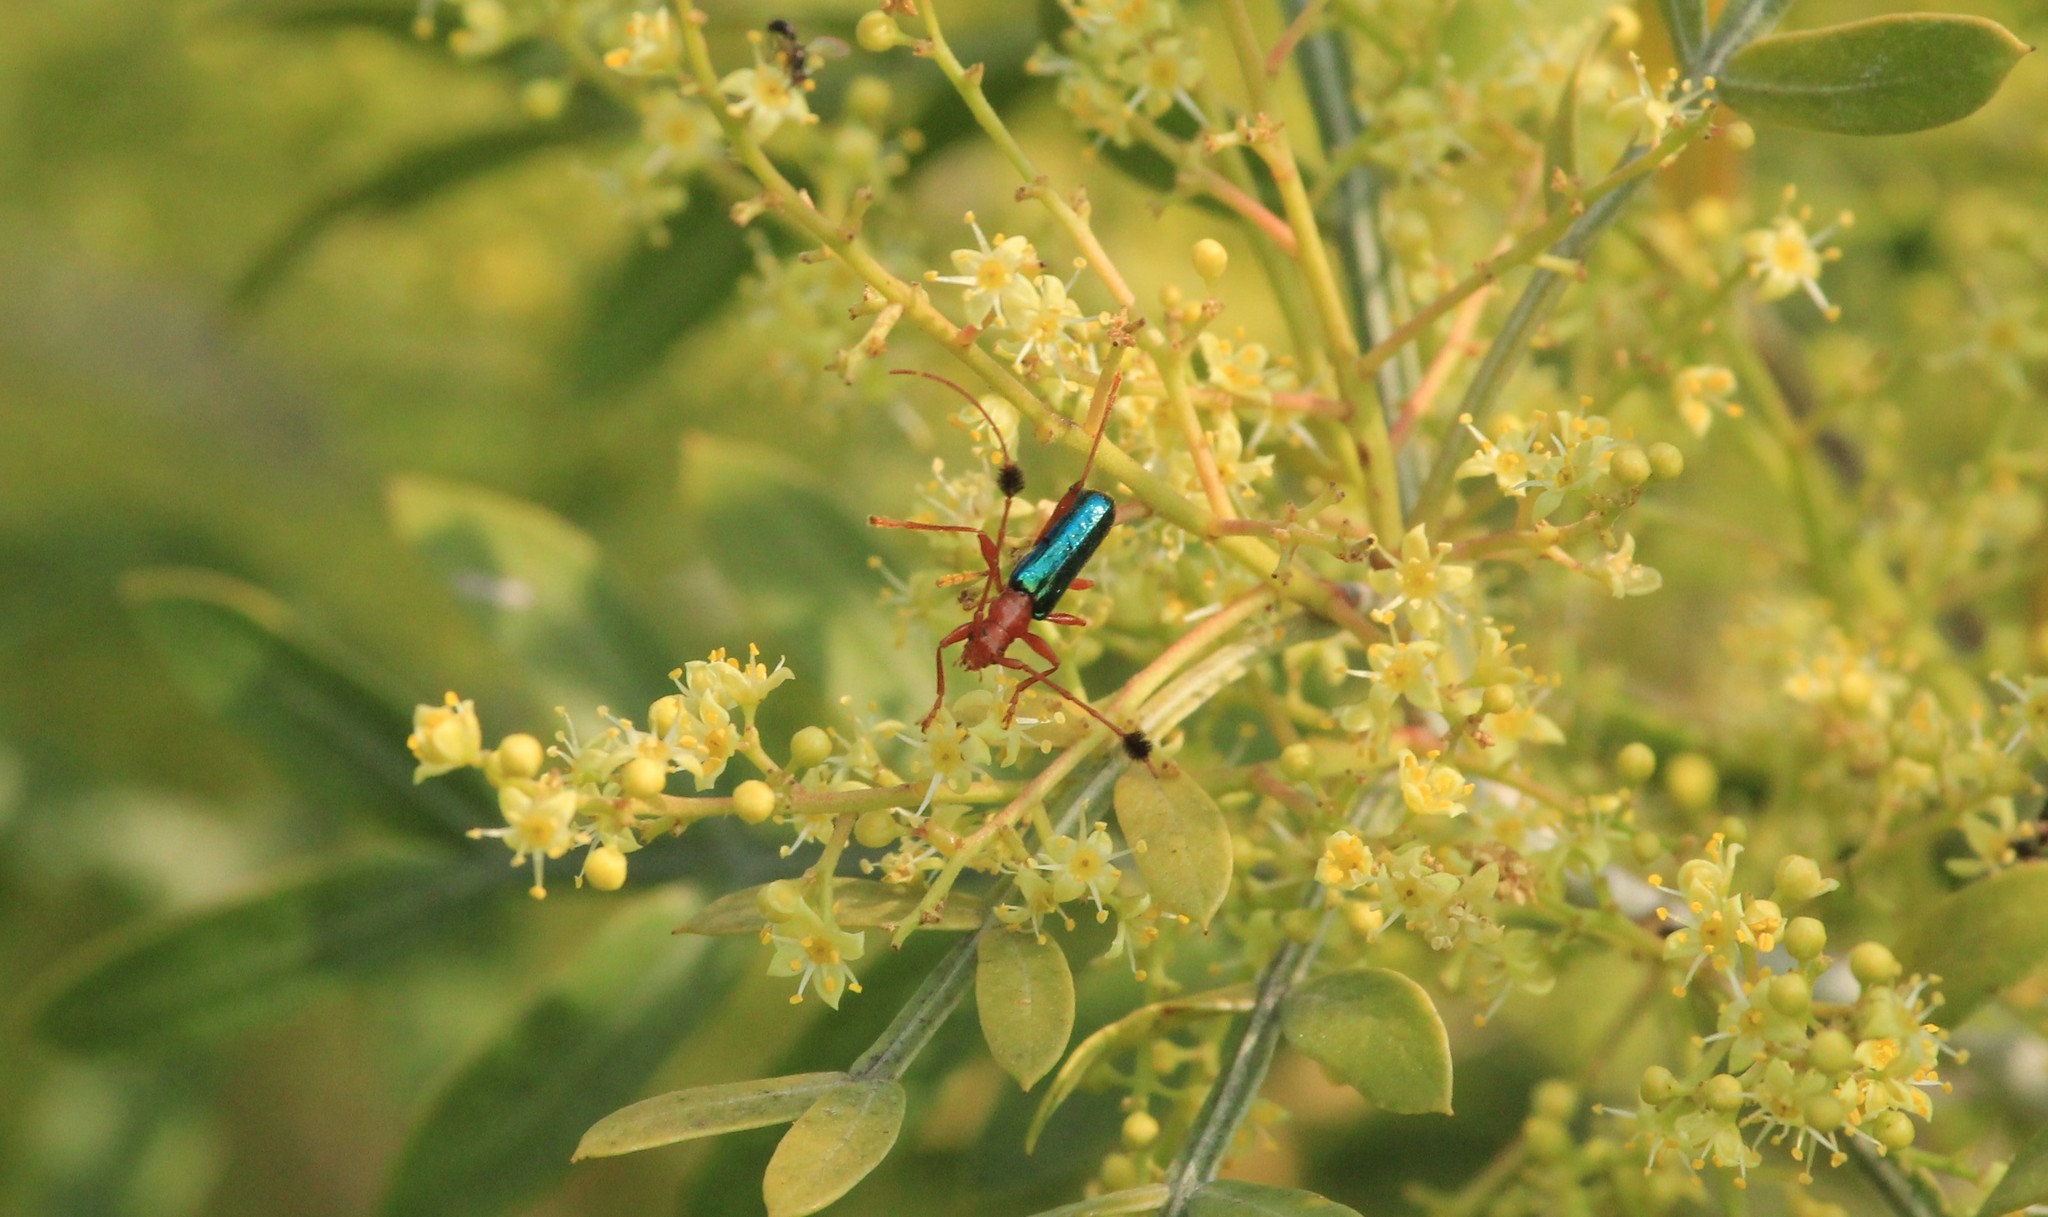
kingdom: Animalia
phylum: Arthropoda
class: Insecta
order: Coleoptera
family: Cerambycidae
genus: Paromoeocerus
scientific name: Paromoeocerus barbicornis
